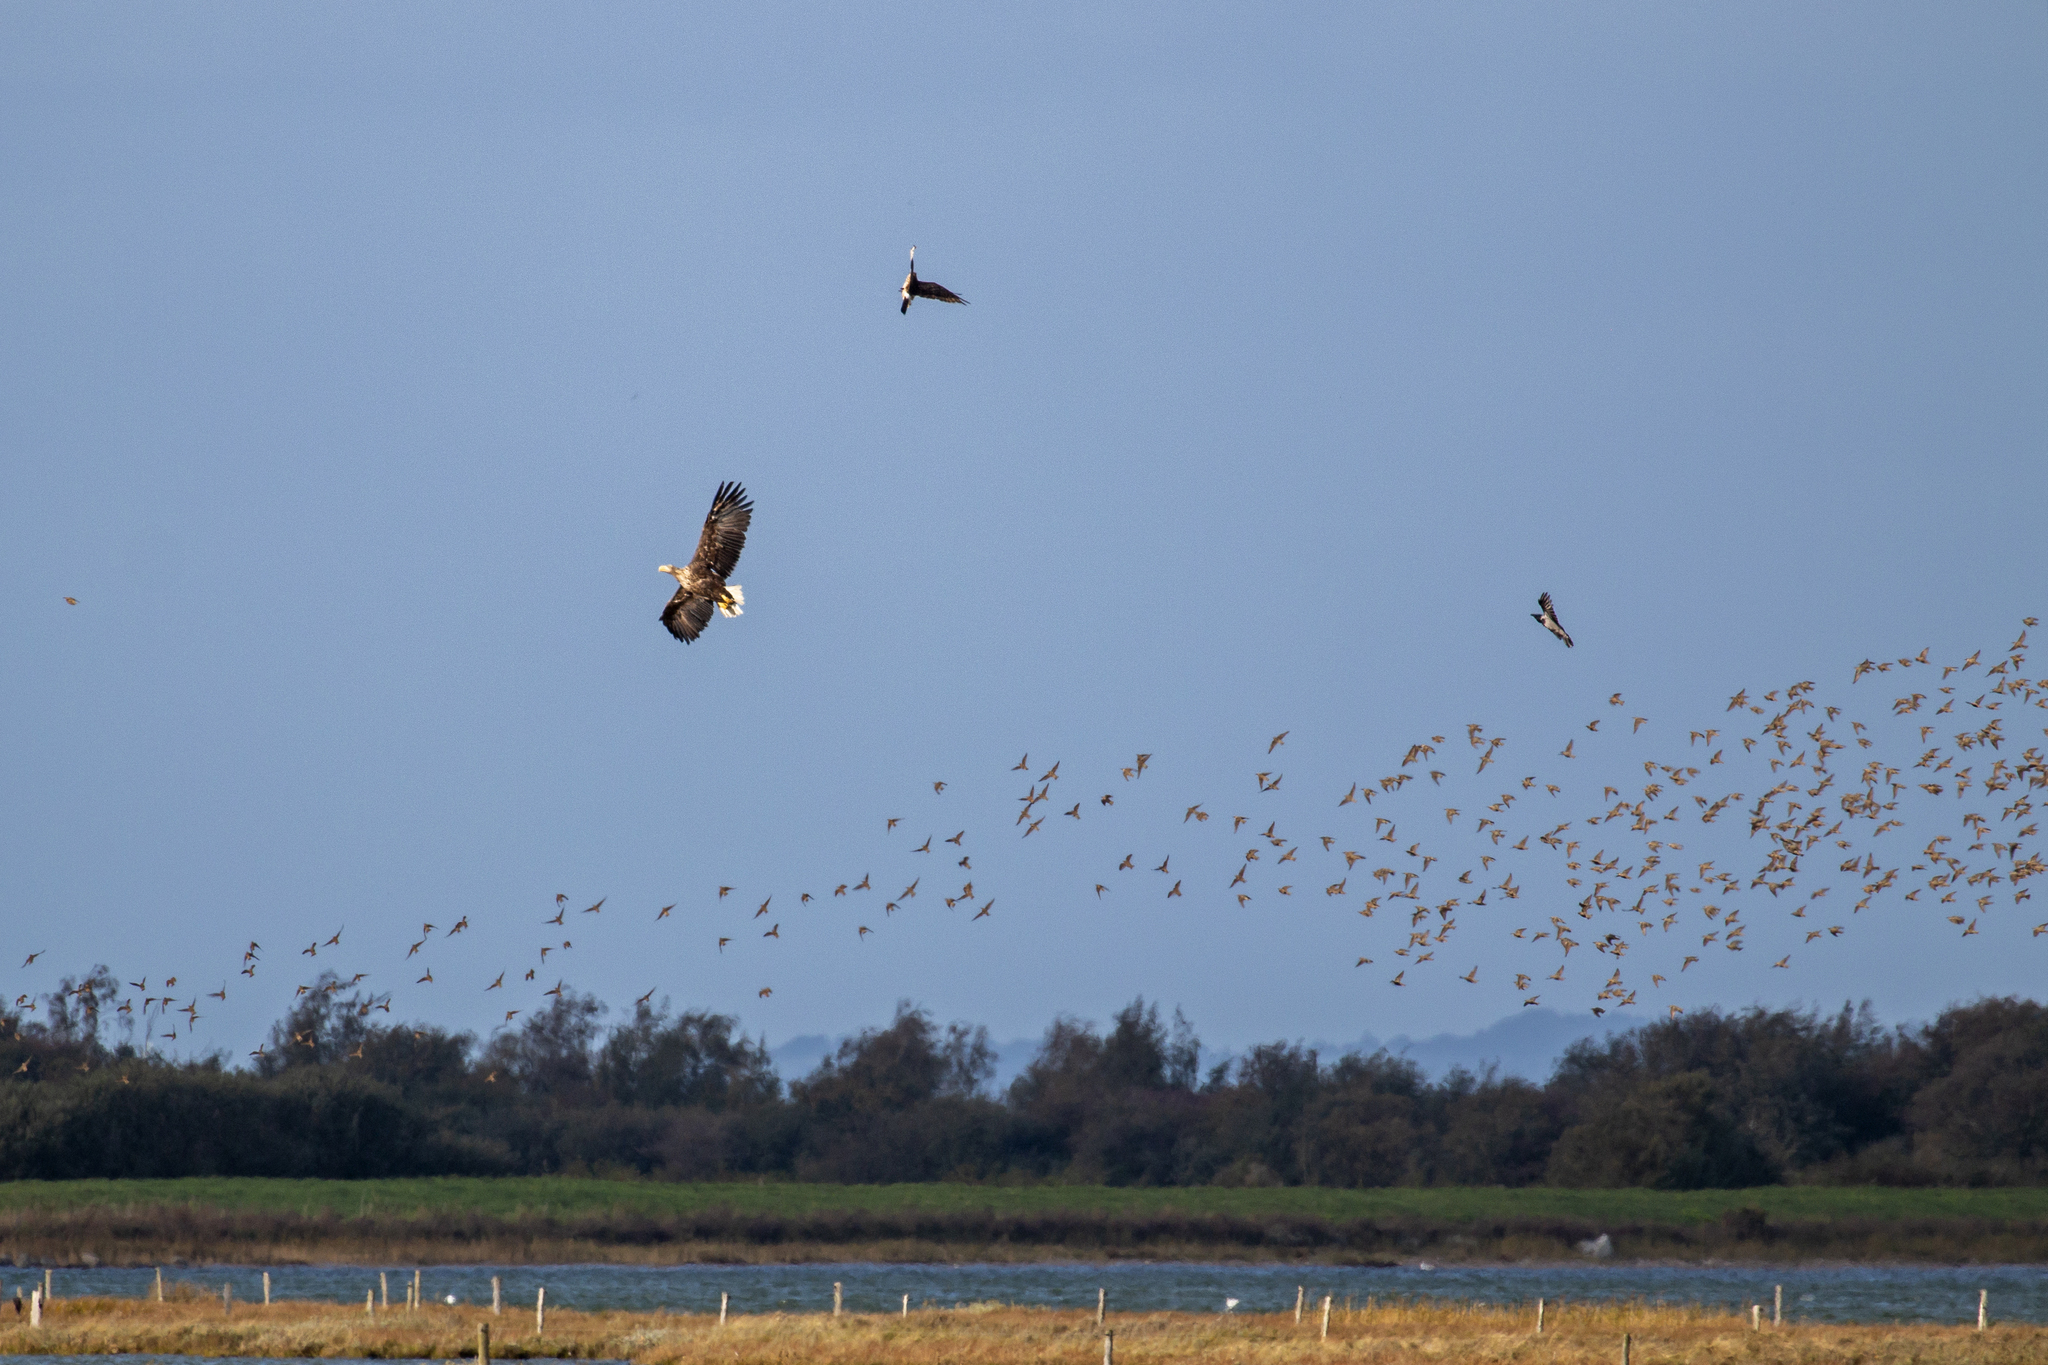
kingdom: Animalia
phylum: Chordata
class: Aves
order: Accipitriformes
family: Accipitridae
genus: Haliaeetus
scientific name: Haliaeetus albicilla
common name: White-tailed eagle
